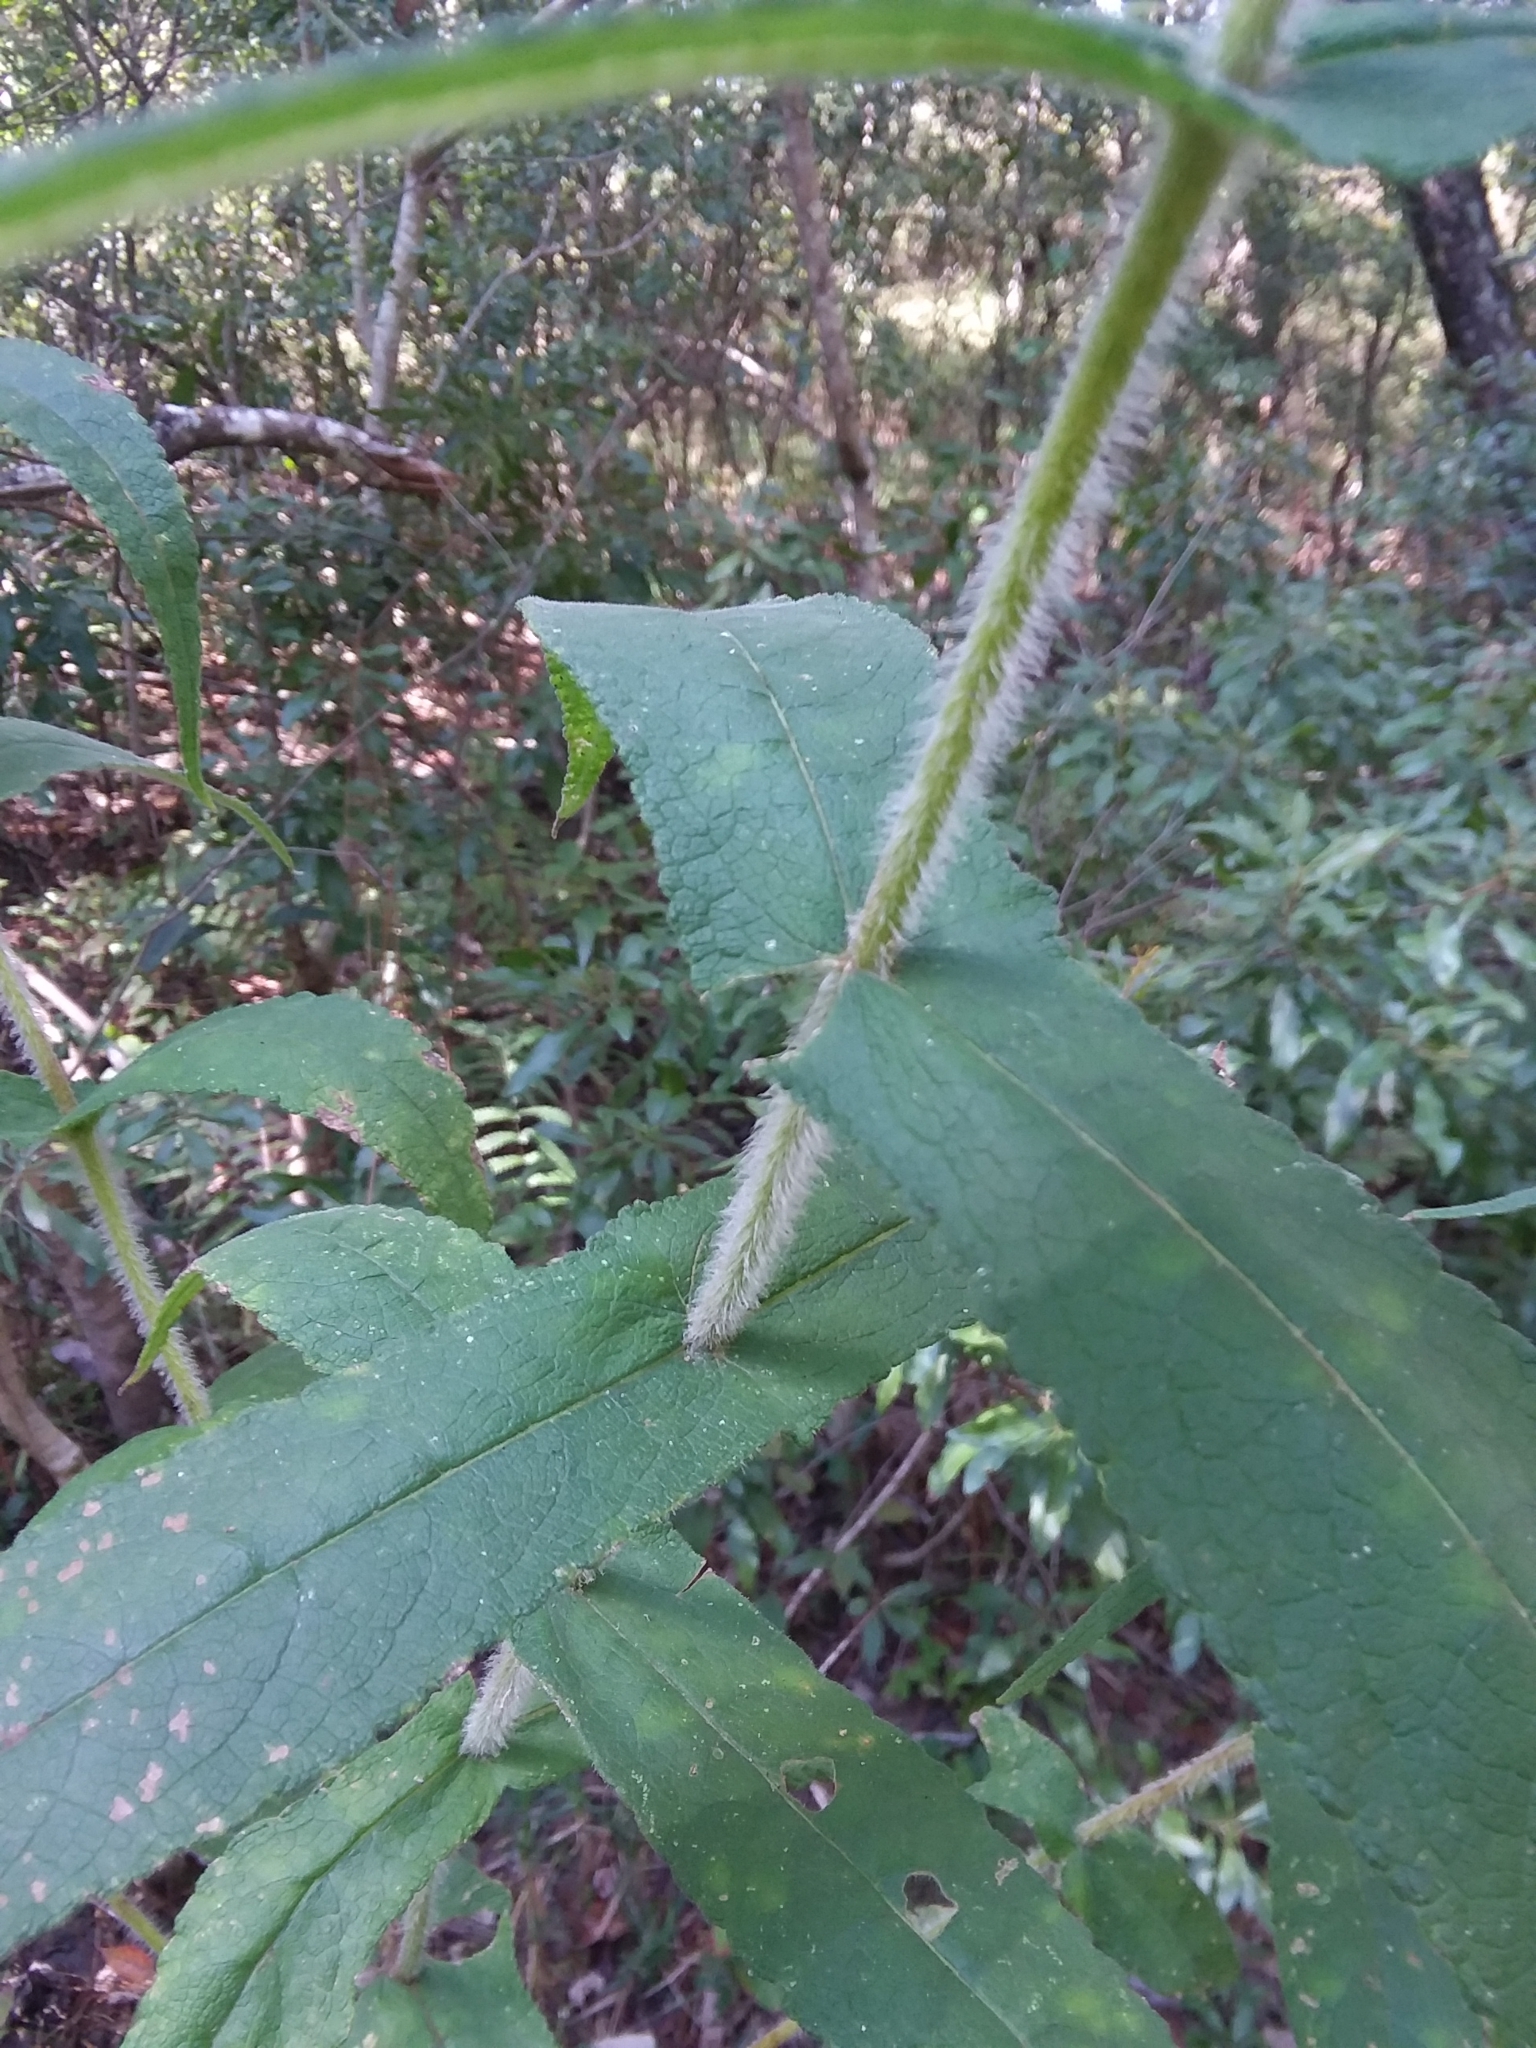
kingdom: Plantae
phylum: Tracheophyta
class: Magnoliopsida
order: Asterales
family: Asteraceae
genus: Eupatorium
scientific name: Eupatorium perfoliatum
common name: Boneset
